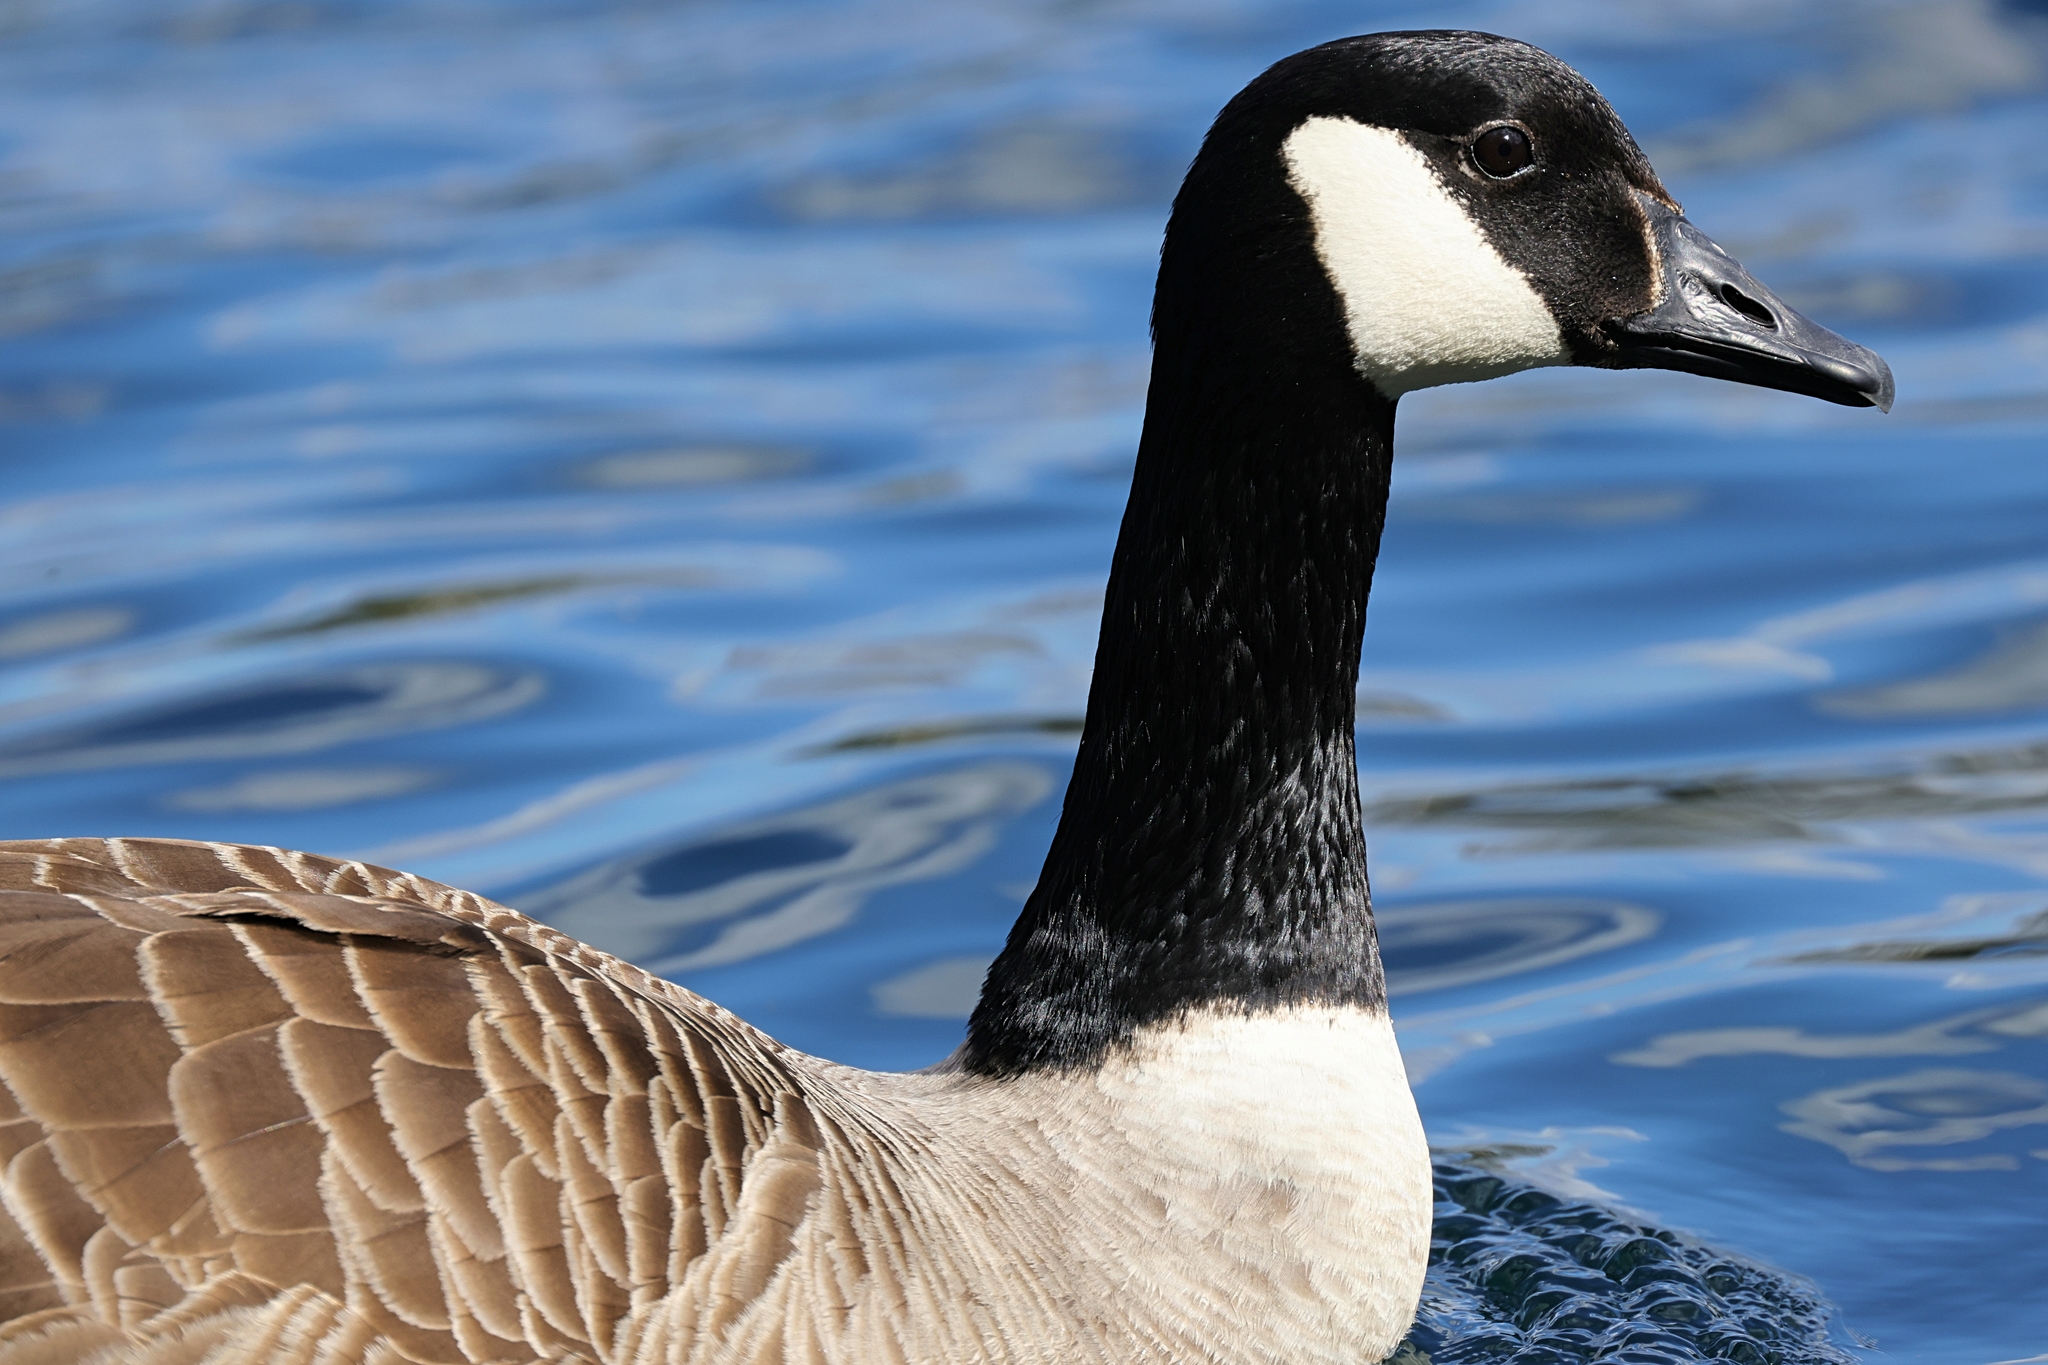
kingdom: Animalia
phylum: Chordata
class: Aves
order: Anseriformes
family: Anatidae
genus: Branta
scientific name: Branta canadensis
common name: Canada goose
